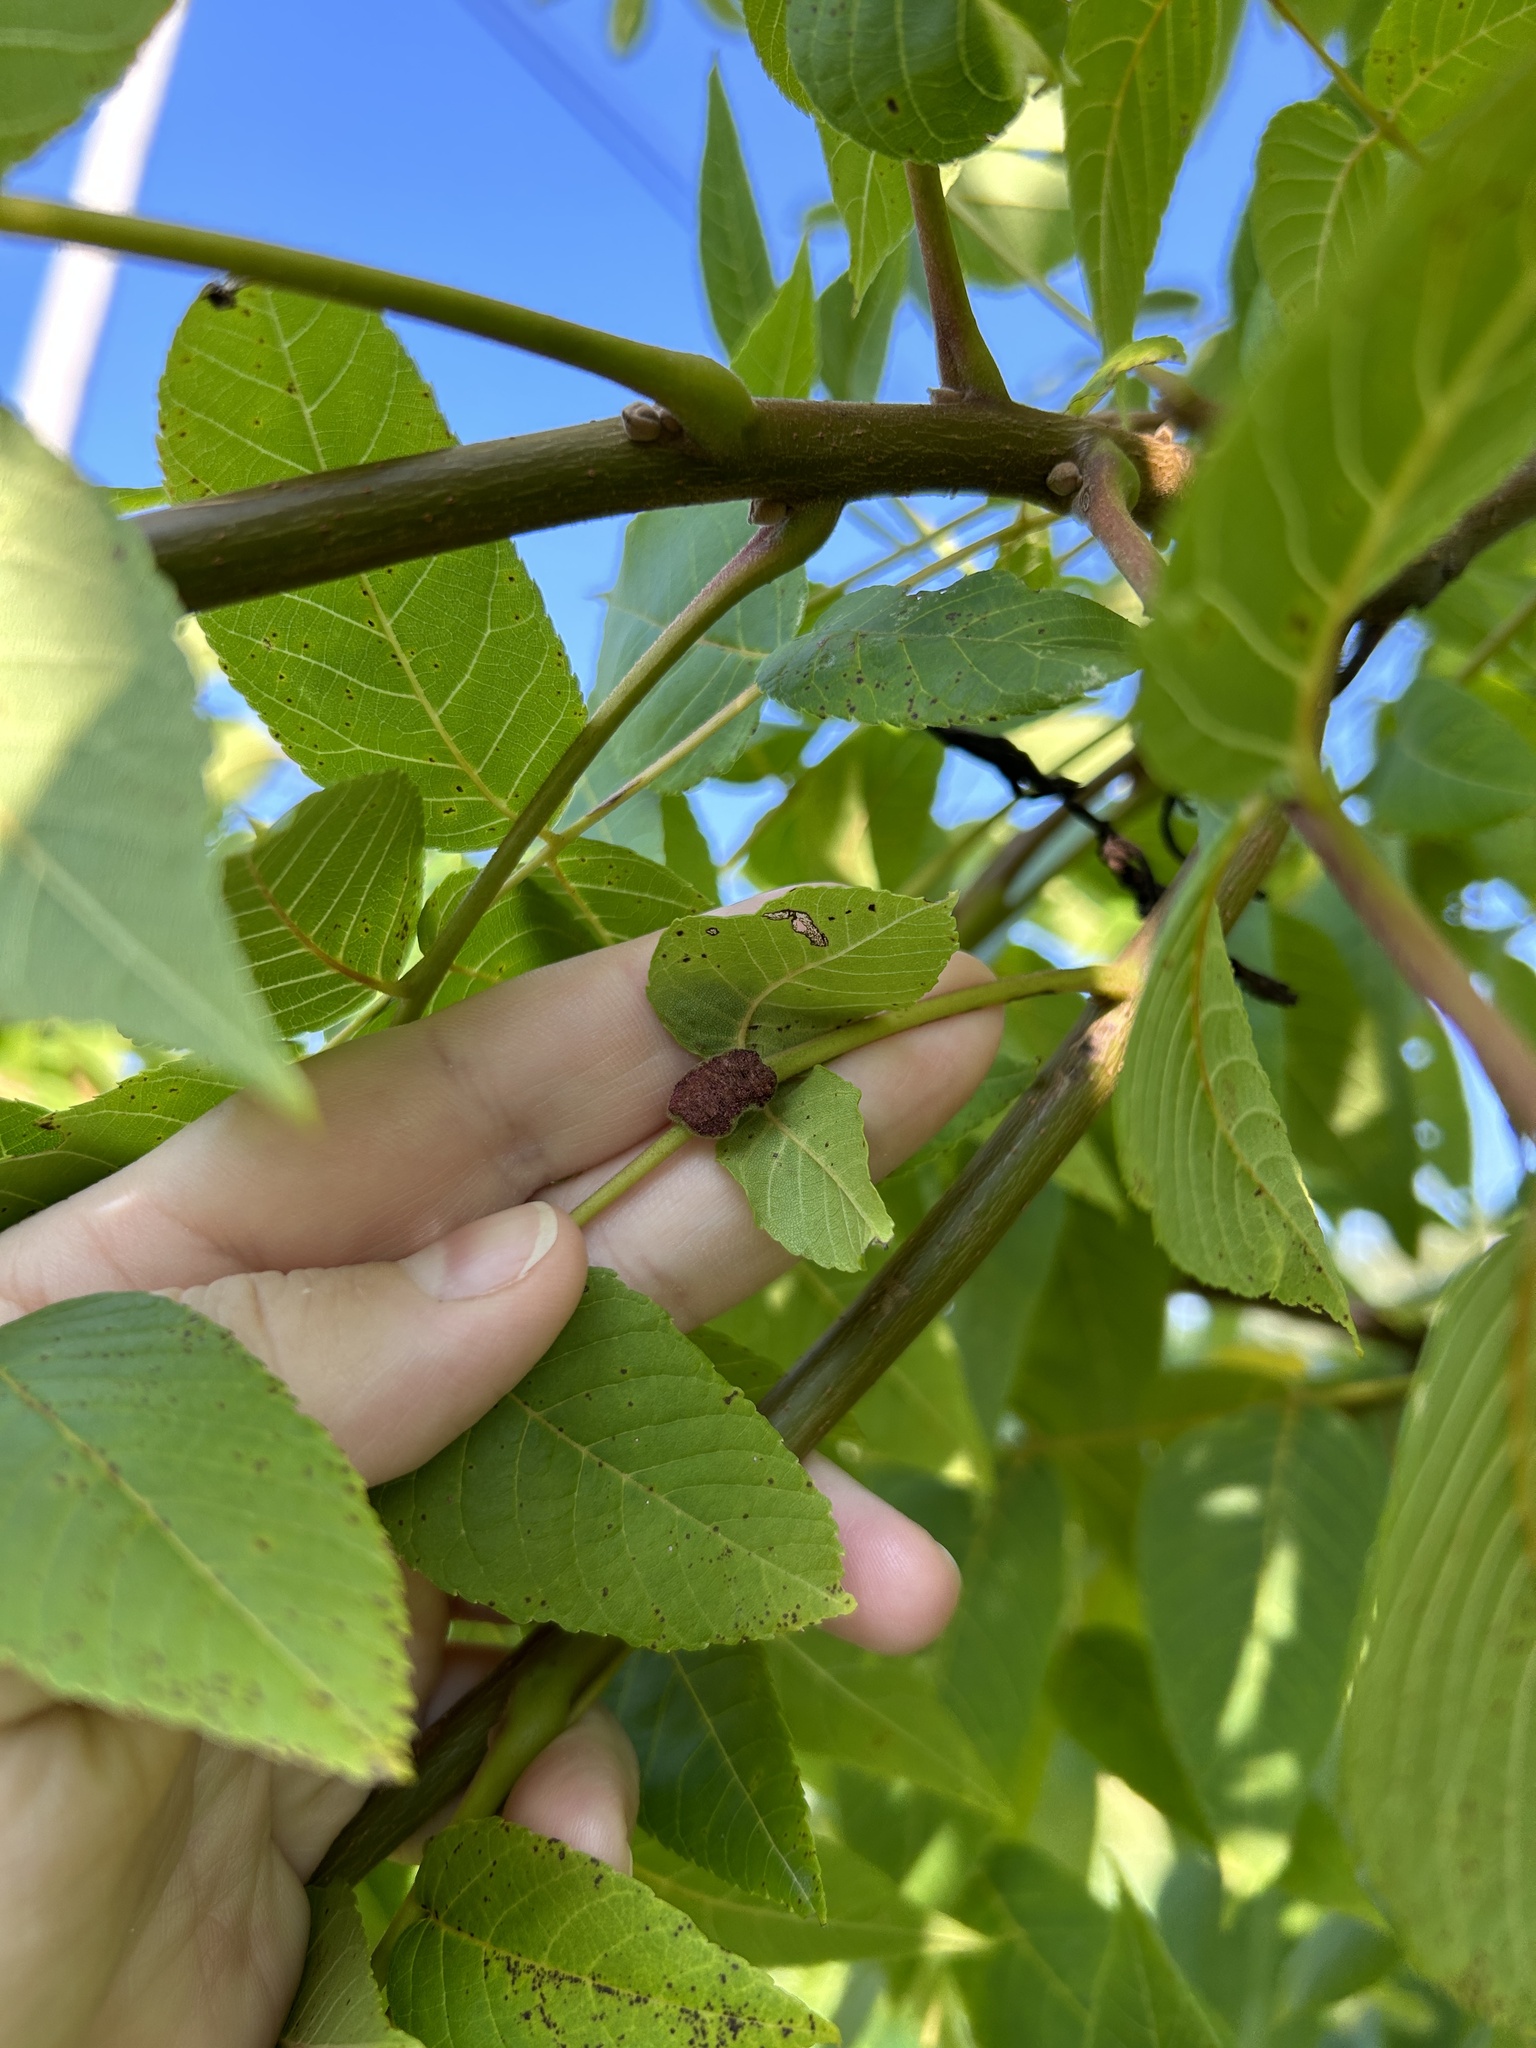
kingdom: Animalia
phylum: Arthropoda
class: Arachnida
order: Trombidiformes
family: Eriophyidae
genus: Aceria
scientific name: Aceria
